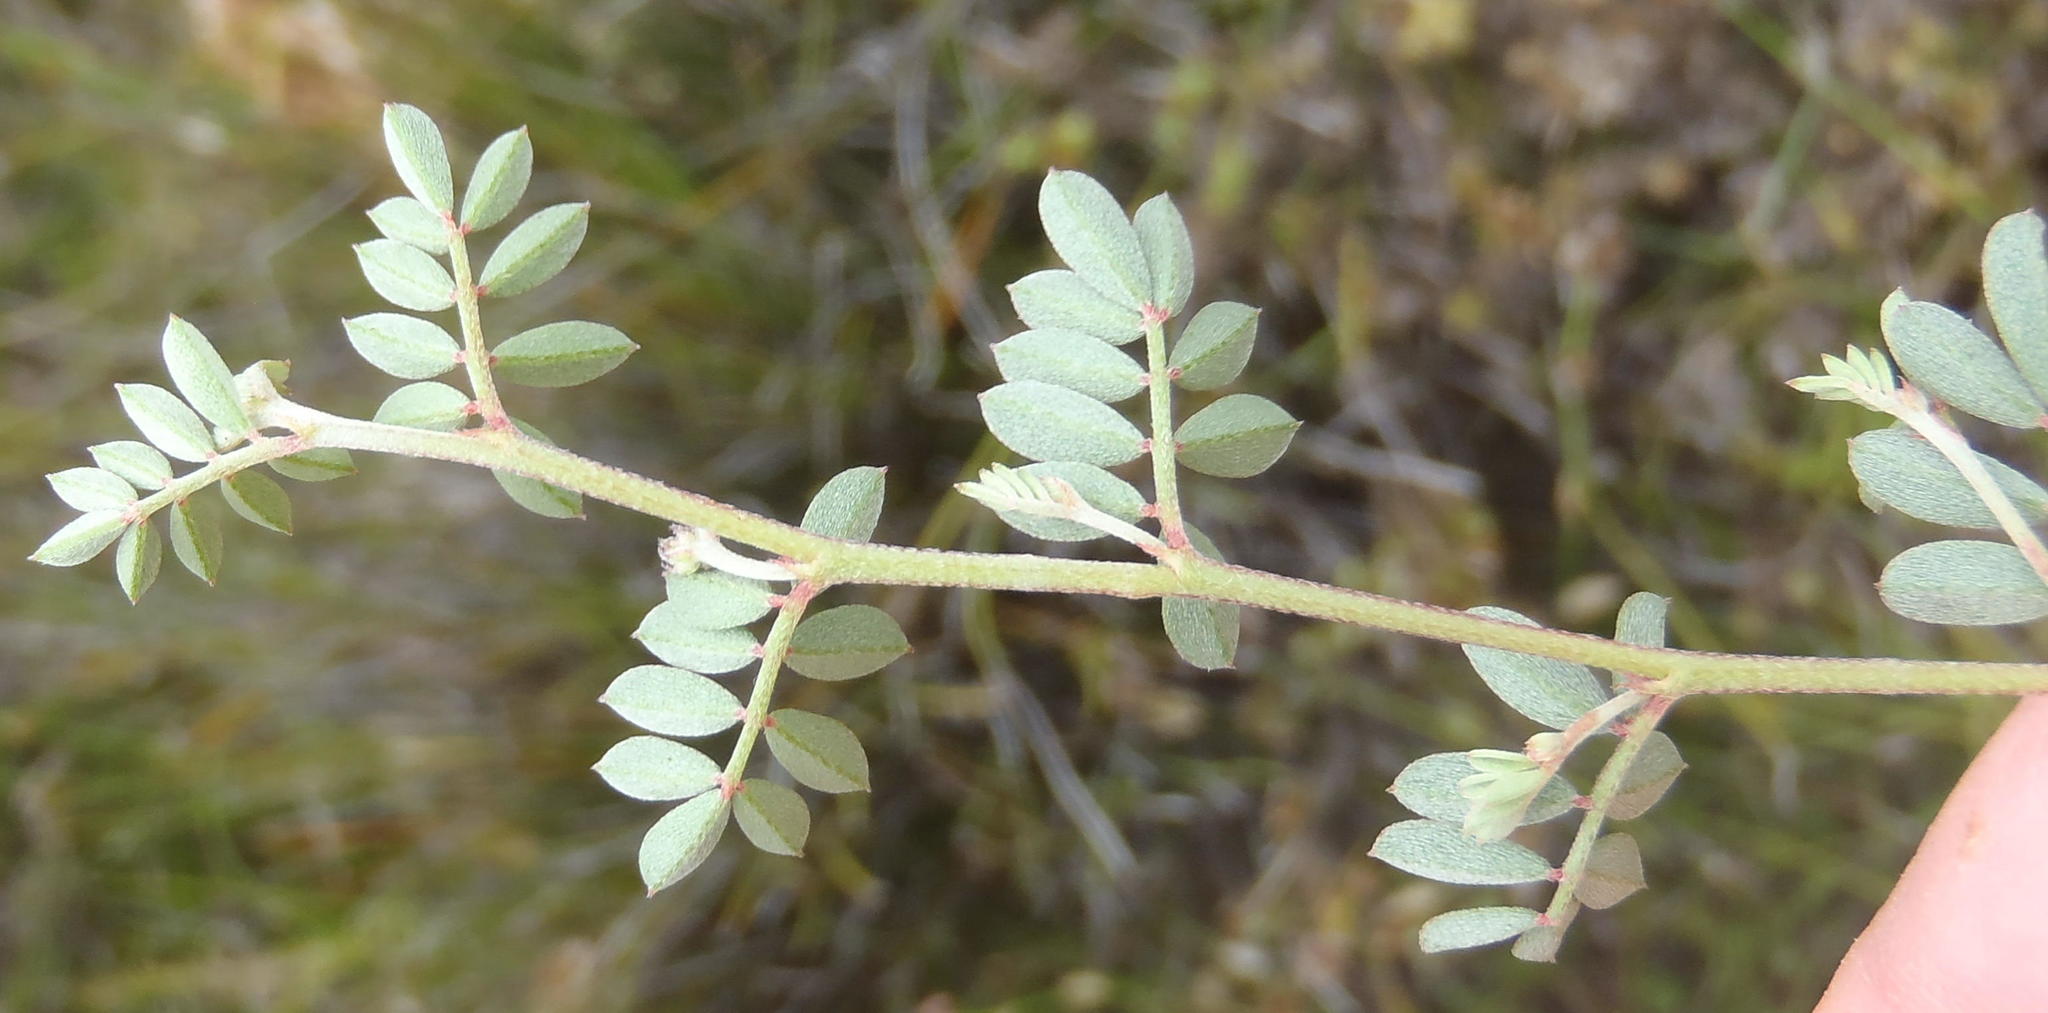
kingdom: Plantae
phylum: Tracheophyta
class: Magnoliopsida
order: Fabales
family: Fabaceae
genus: Indigofera
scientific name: Indigofera declinata
